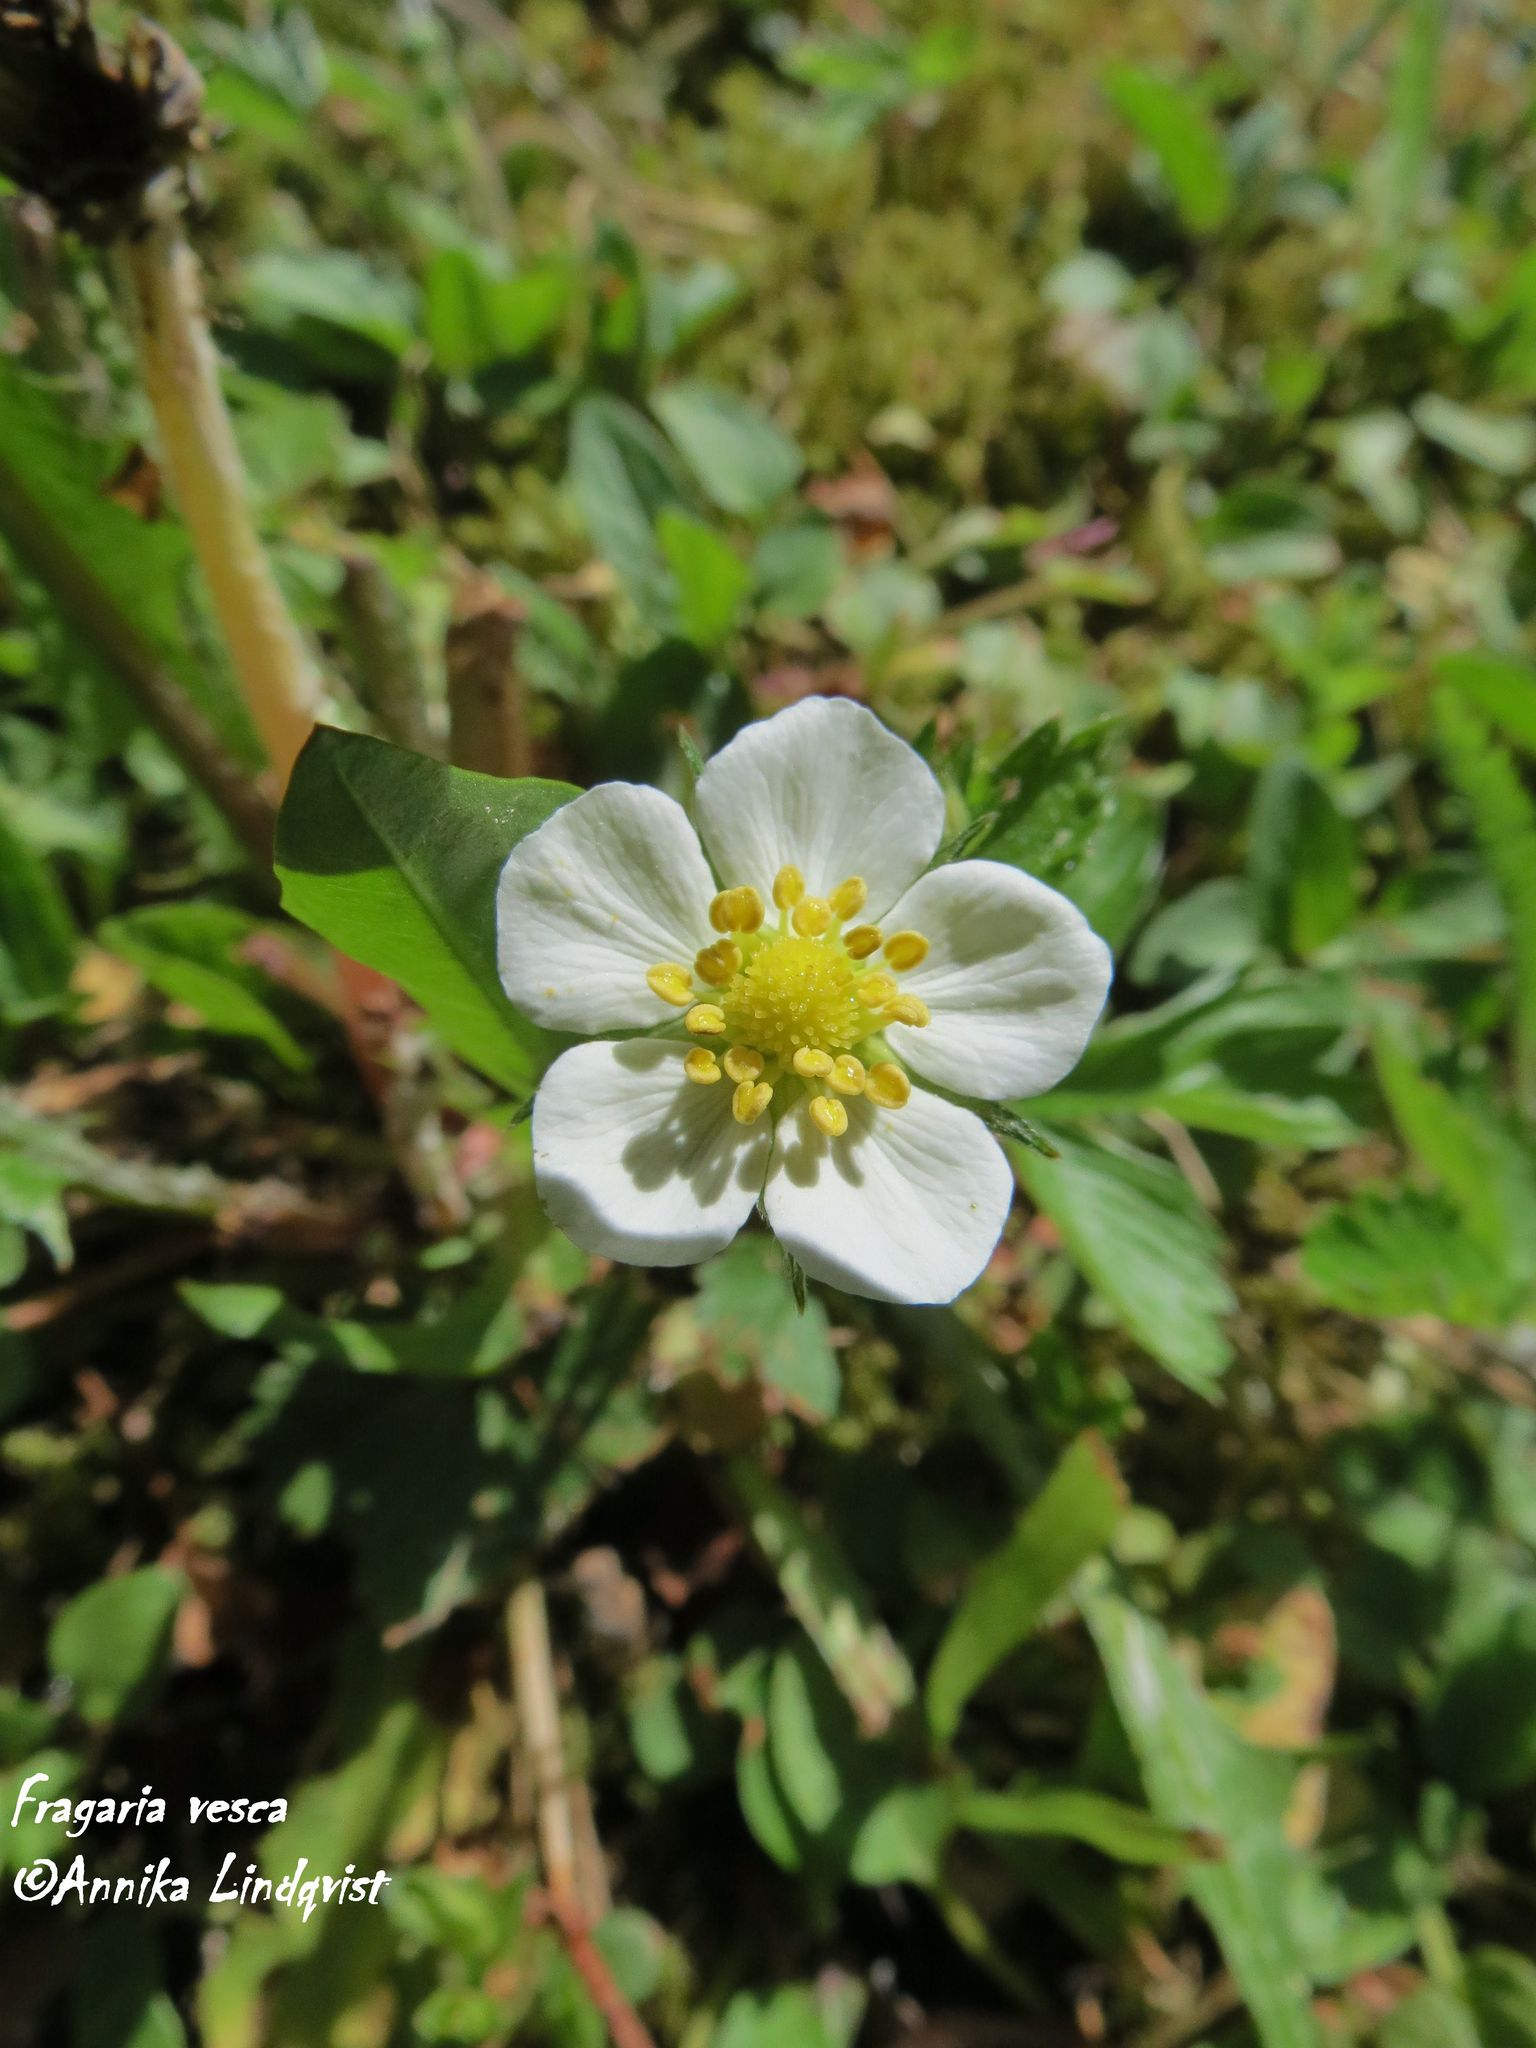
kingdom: Plantae
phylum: Tracheophyta
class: Magnoliopsida
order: Rosales
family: Rosaceae
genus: Fragaria
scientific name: Fragaria vesca
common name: Wild strawberry
